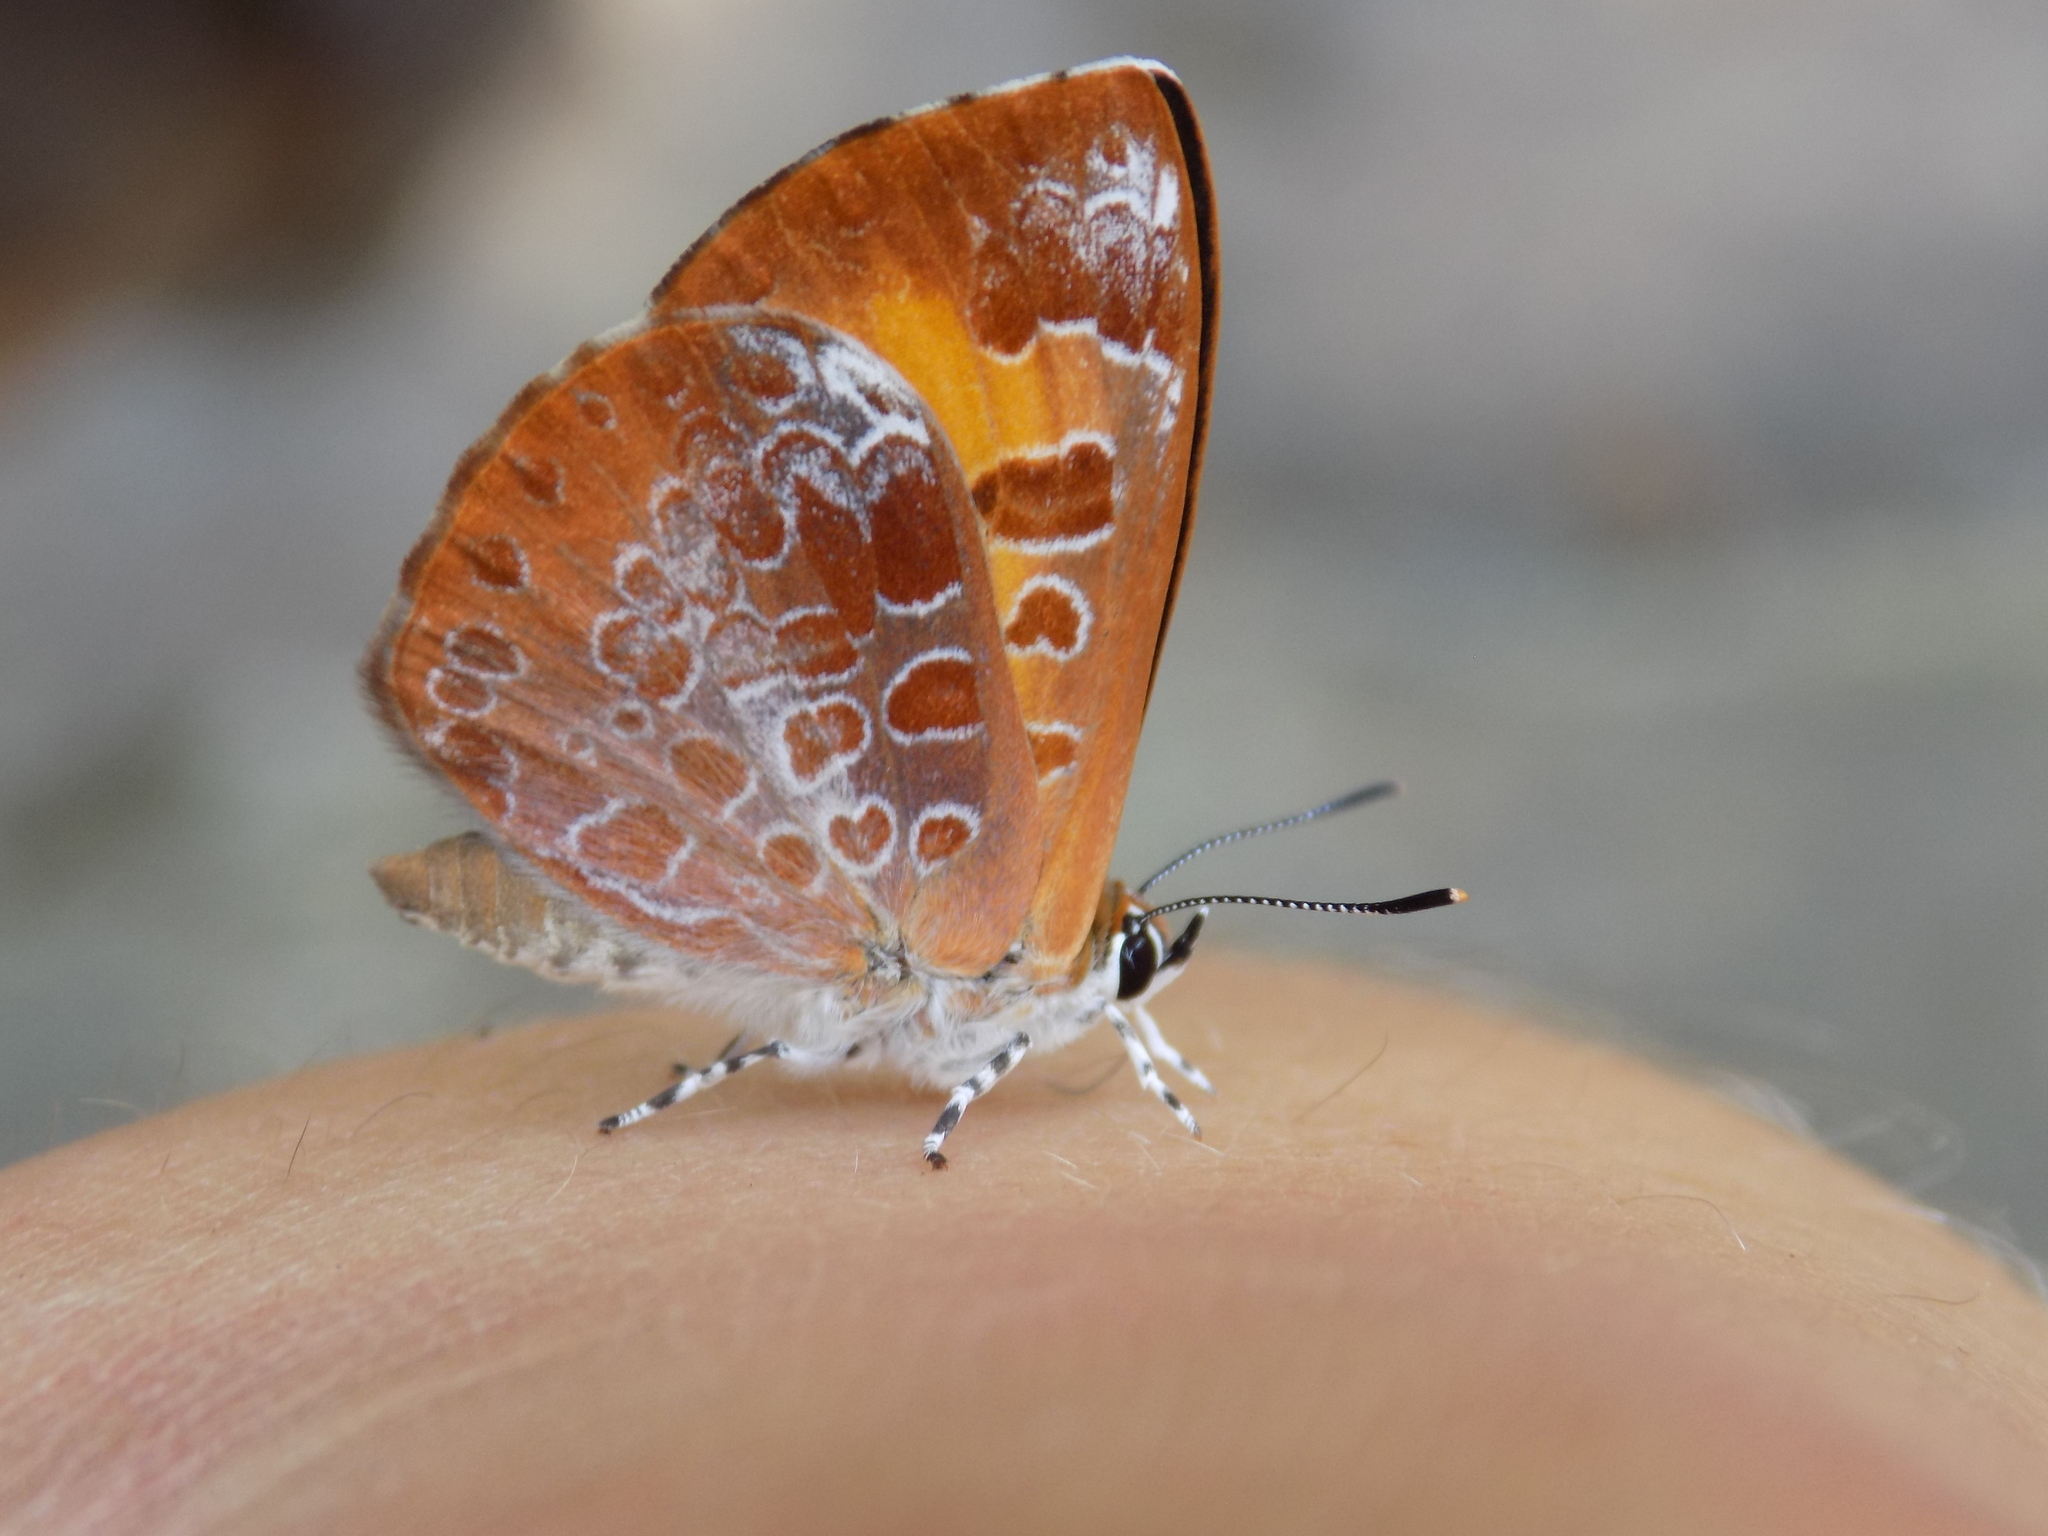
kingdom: Animalia
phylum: Arthropoda
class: Insecta
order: Lepidoptera
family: Lycaenidae
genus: Feniseca
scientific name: Feniseca tarquinius
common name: Harvester
